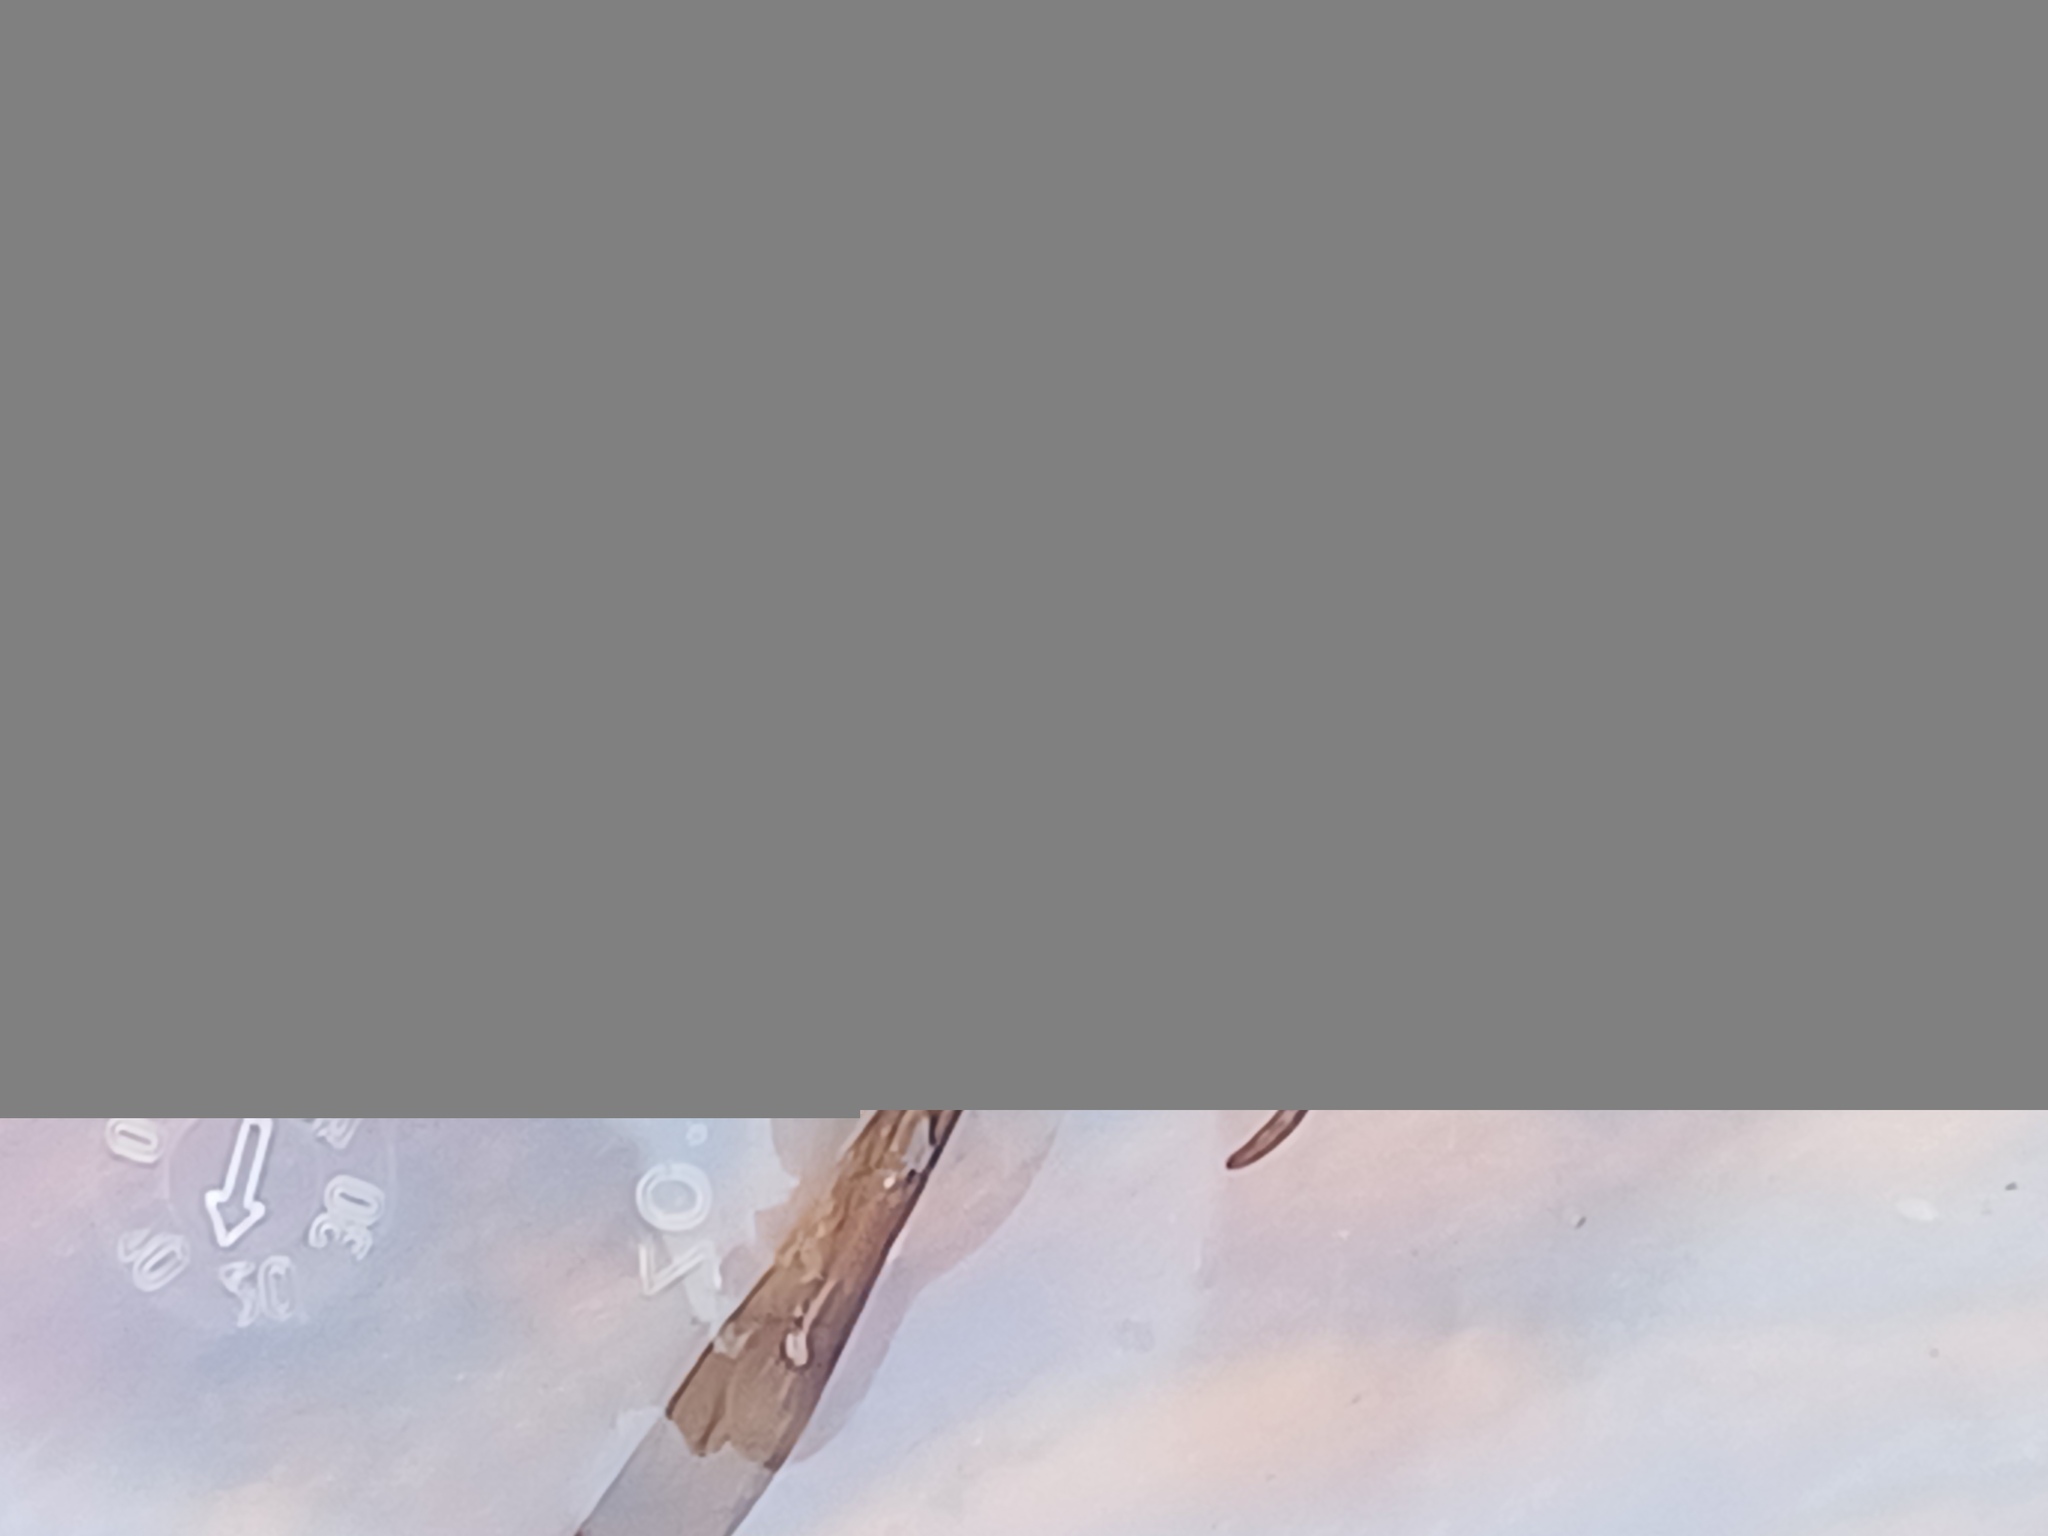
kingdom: Animalia
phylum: Arthropoda
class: Insecta
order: Hymenoptera
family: Vespidae
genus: Vespa
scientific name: Vespa velutina
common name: Asian hornet
